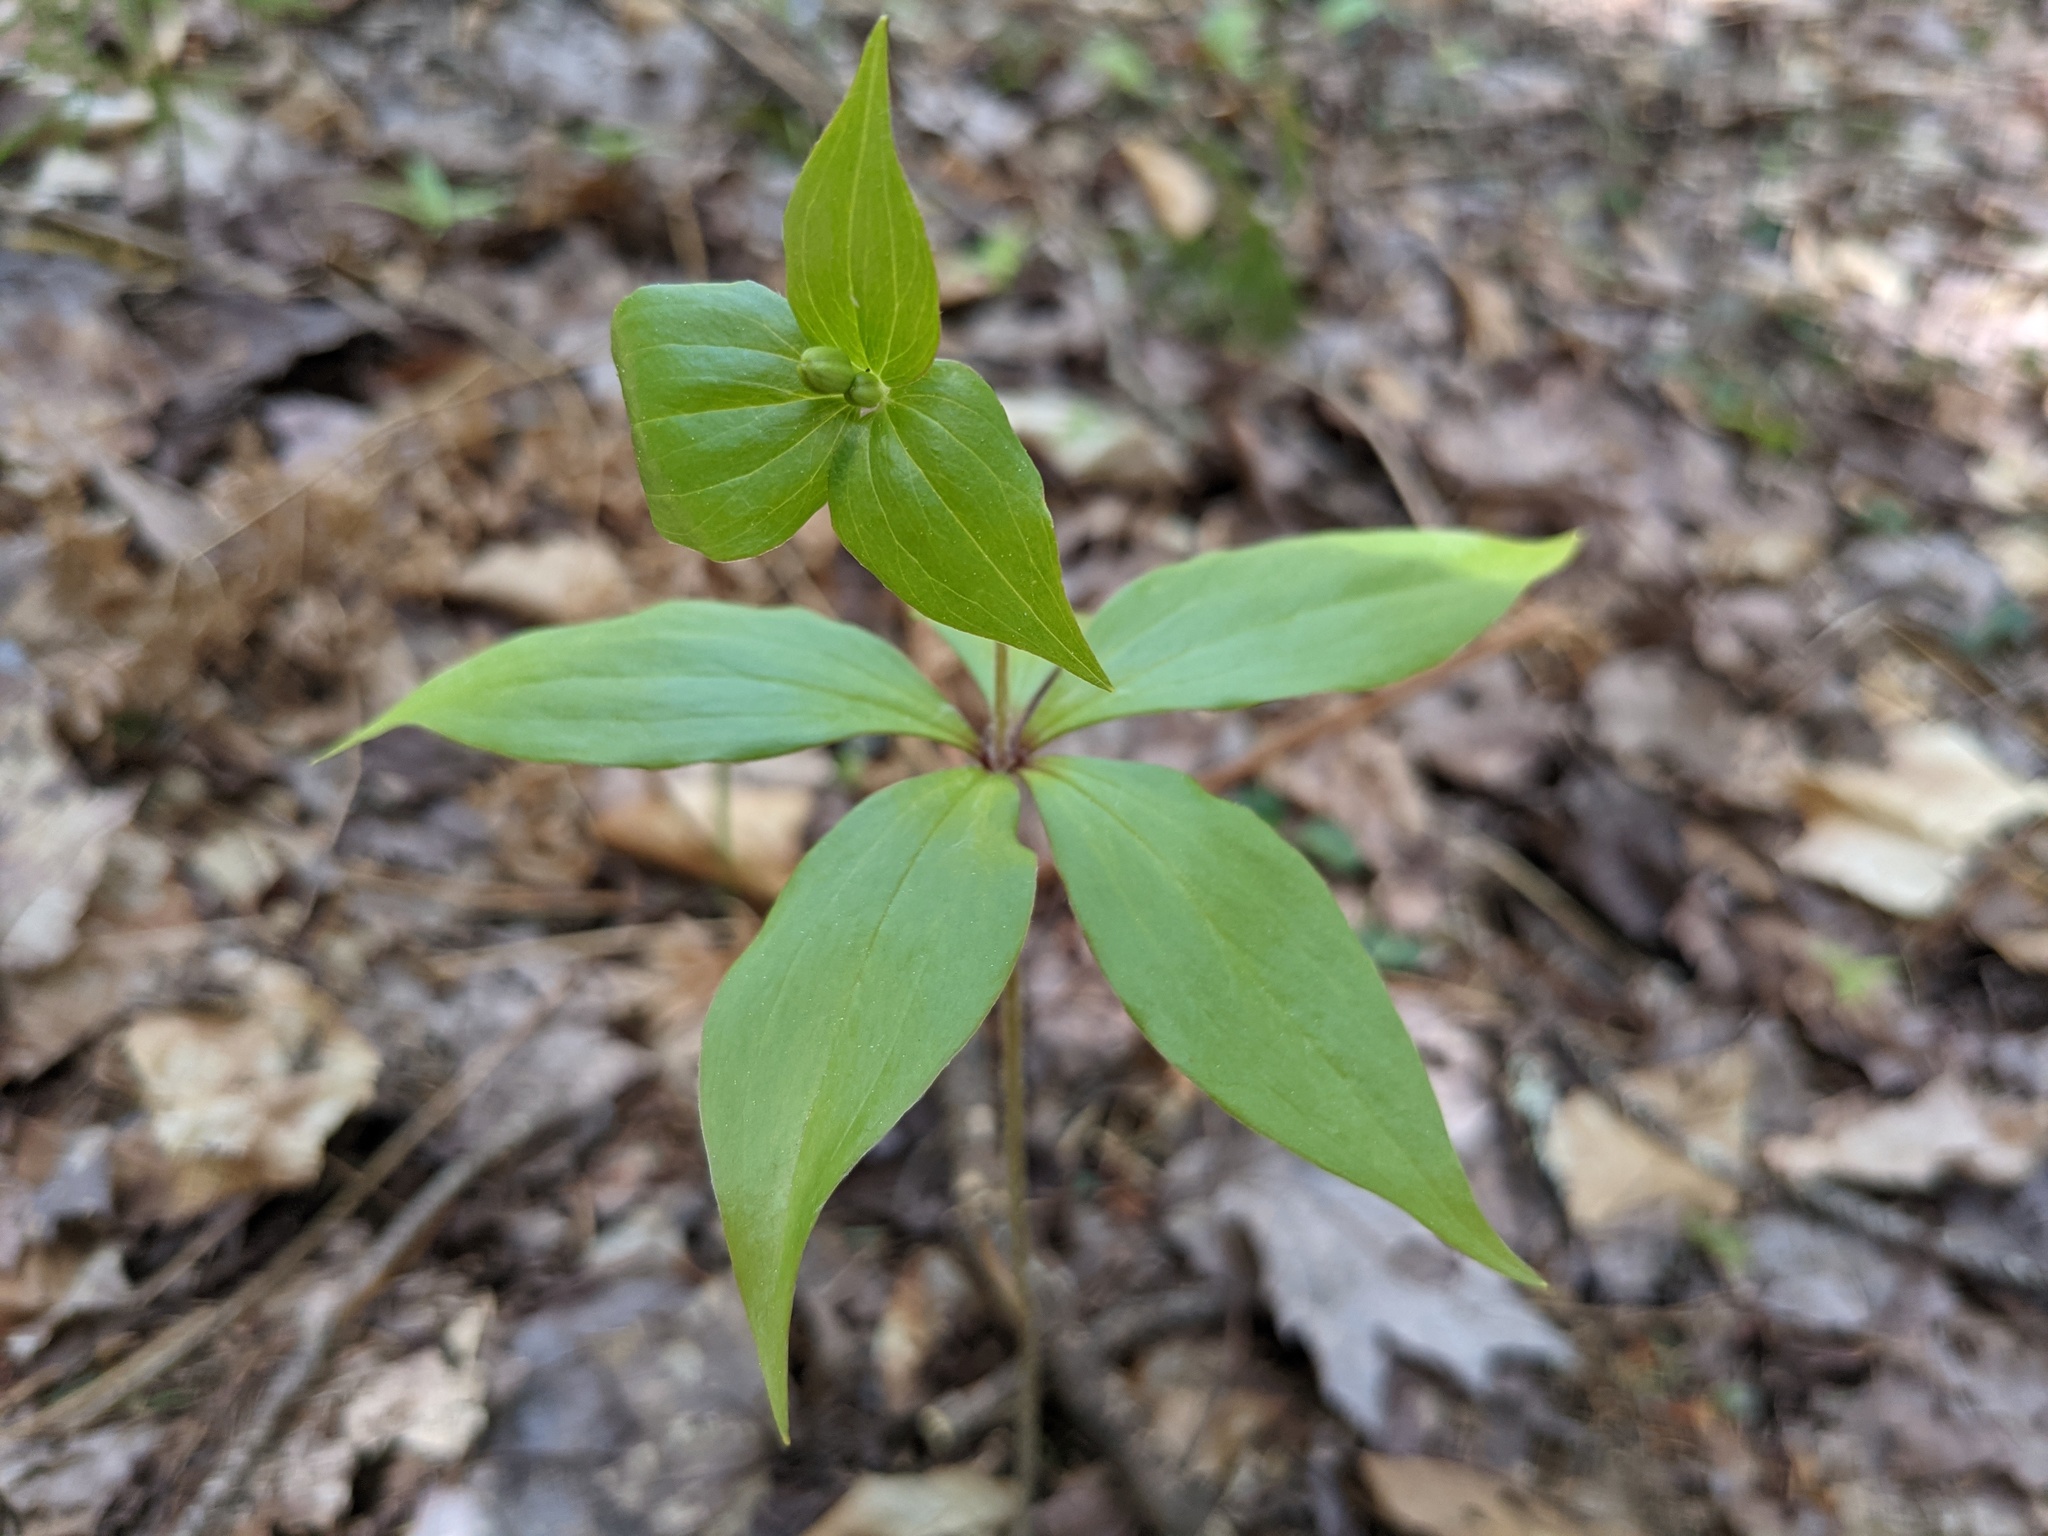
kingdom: Plantae
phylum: Tracheophyta
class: Liliopsida
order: Liliales
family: Liliaceae
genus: Medeola
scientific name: Medeola virginiana
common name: Indian cucumber-root
